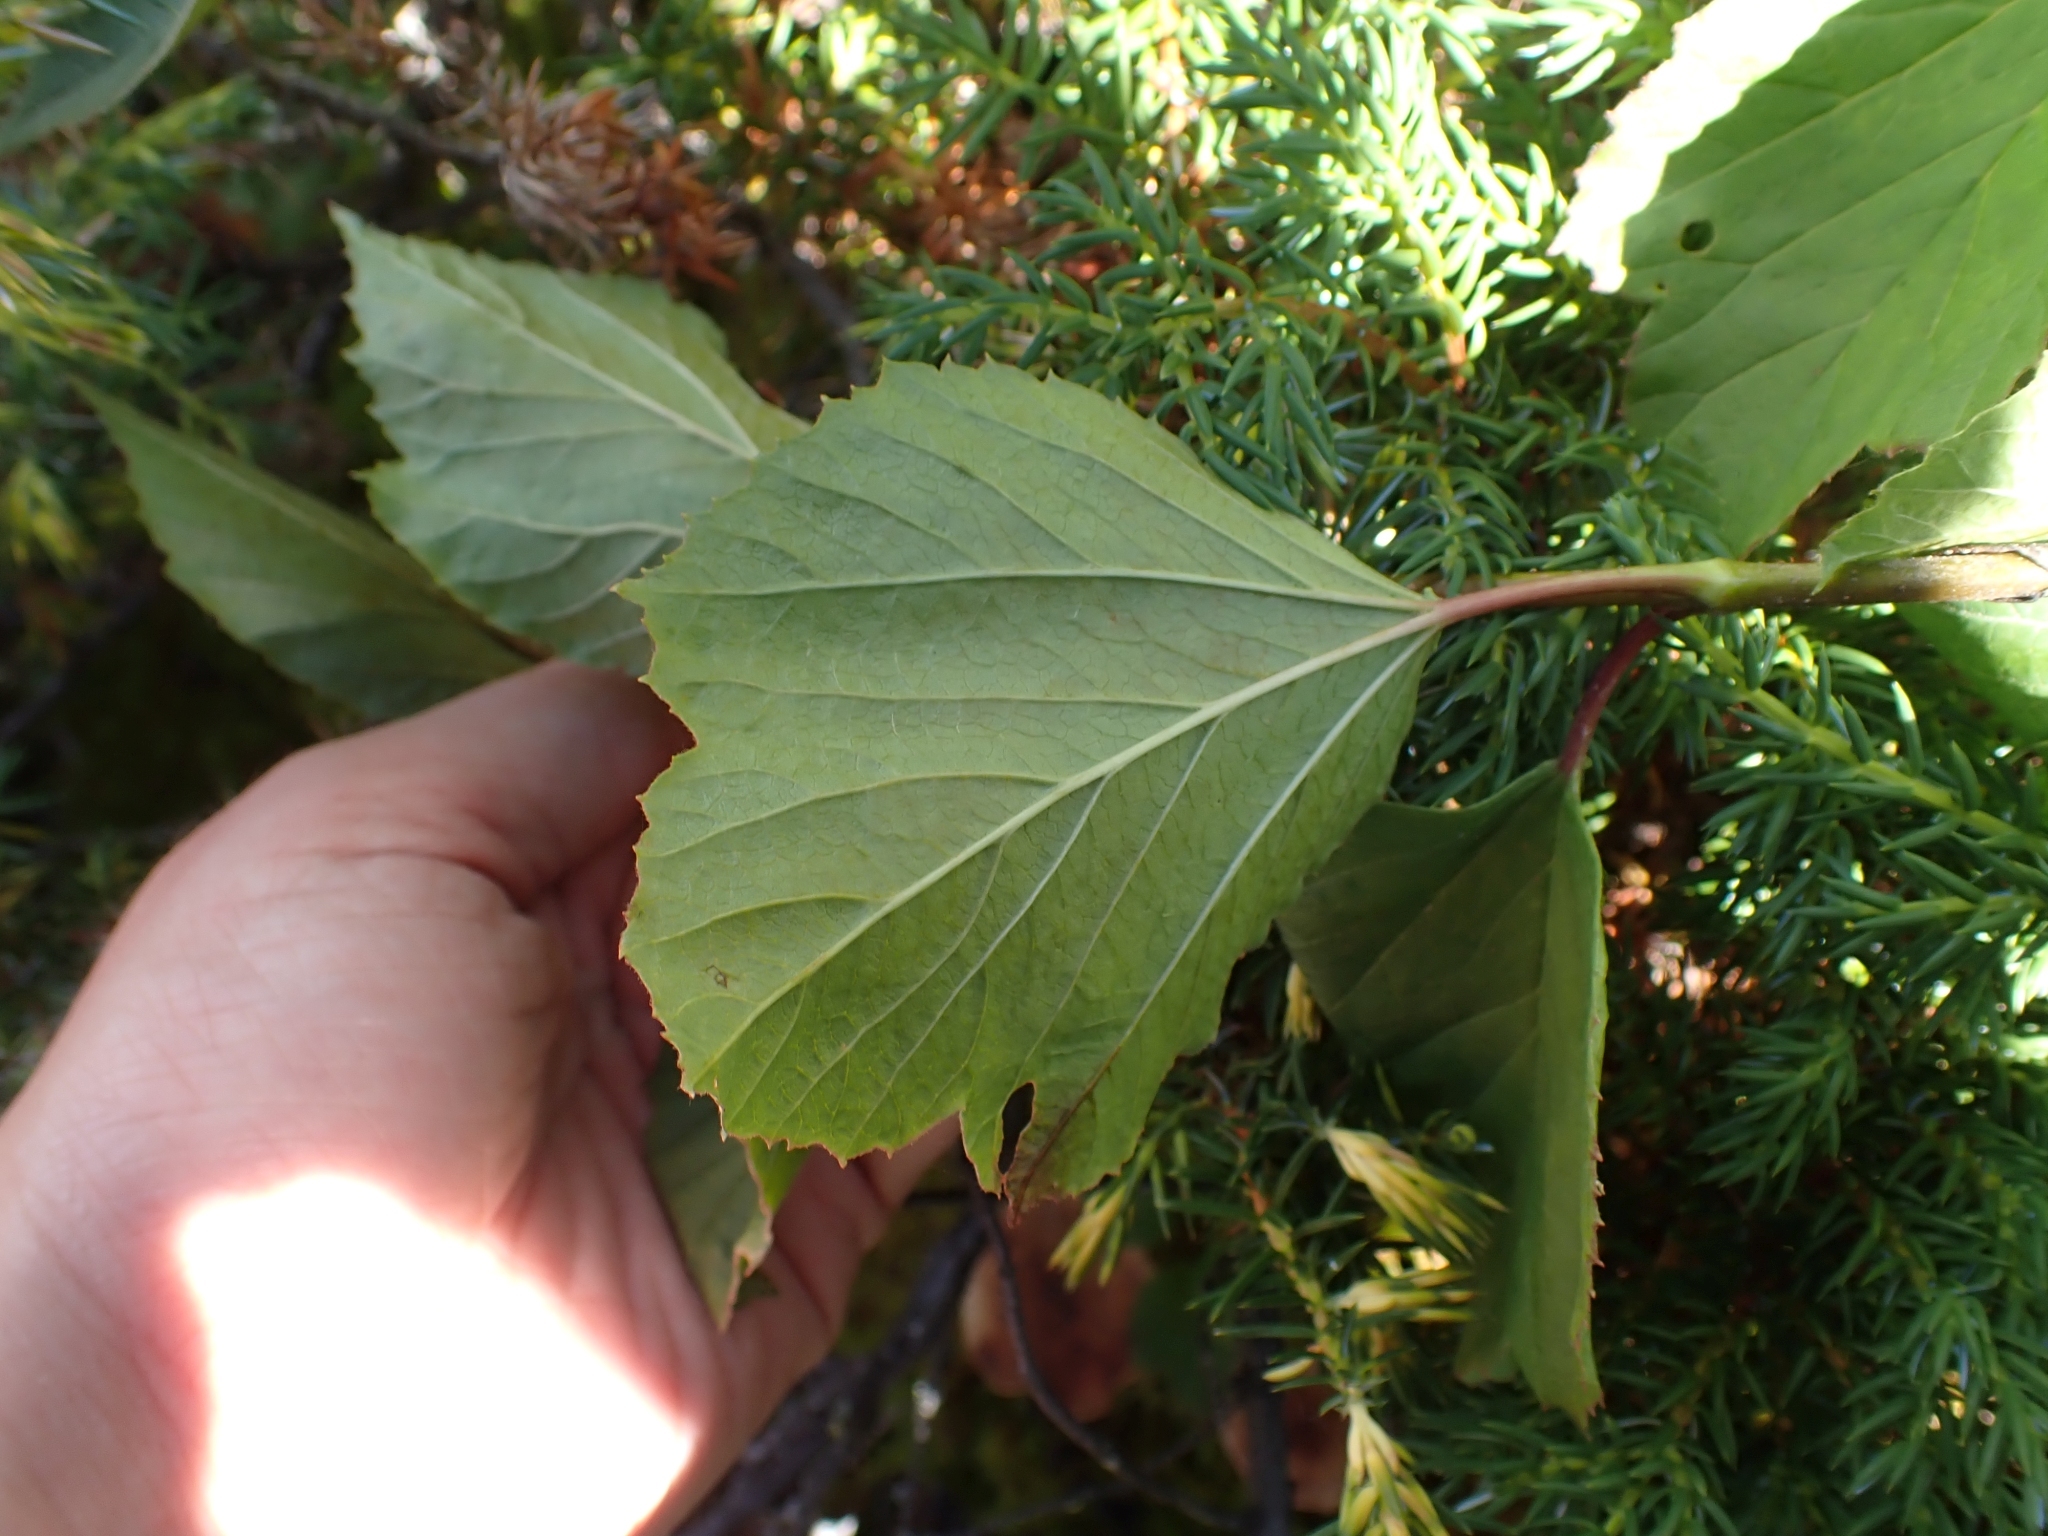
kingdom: Plantae
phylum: Tracheophyta
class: Magnoliopsida
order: Dipsacales
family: Viburnaceae
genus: Viburnum
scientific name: Viburnum edule
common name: Mooseberry
